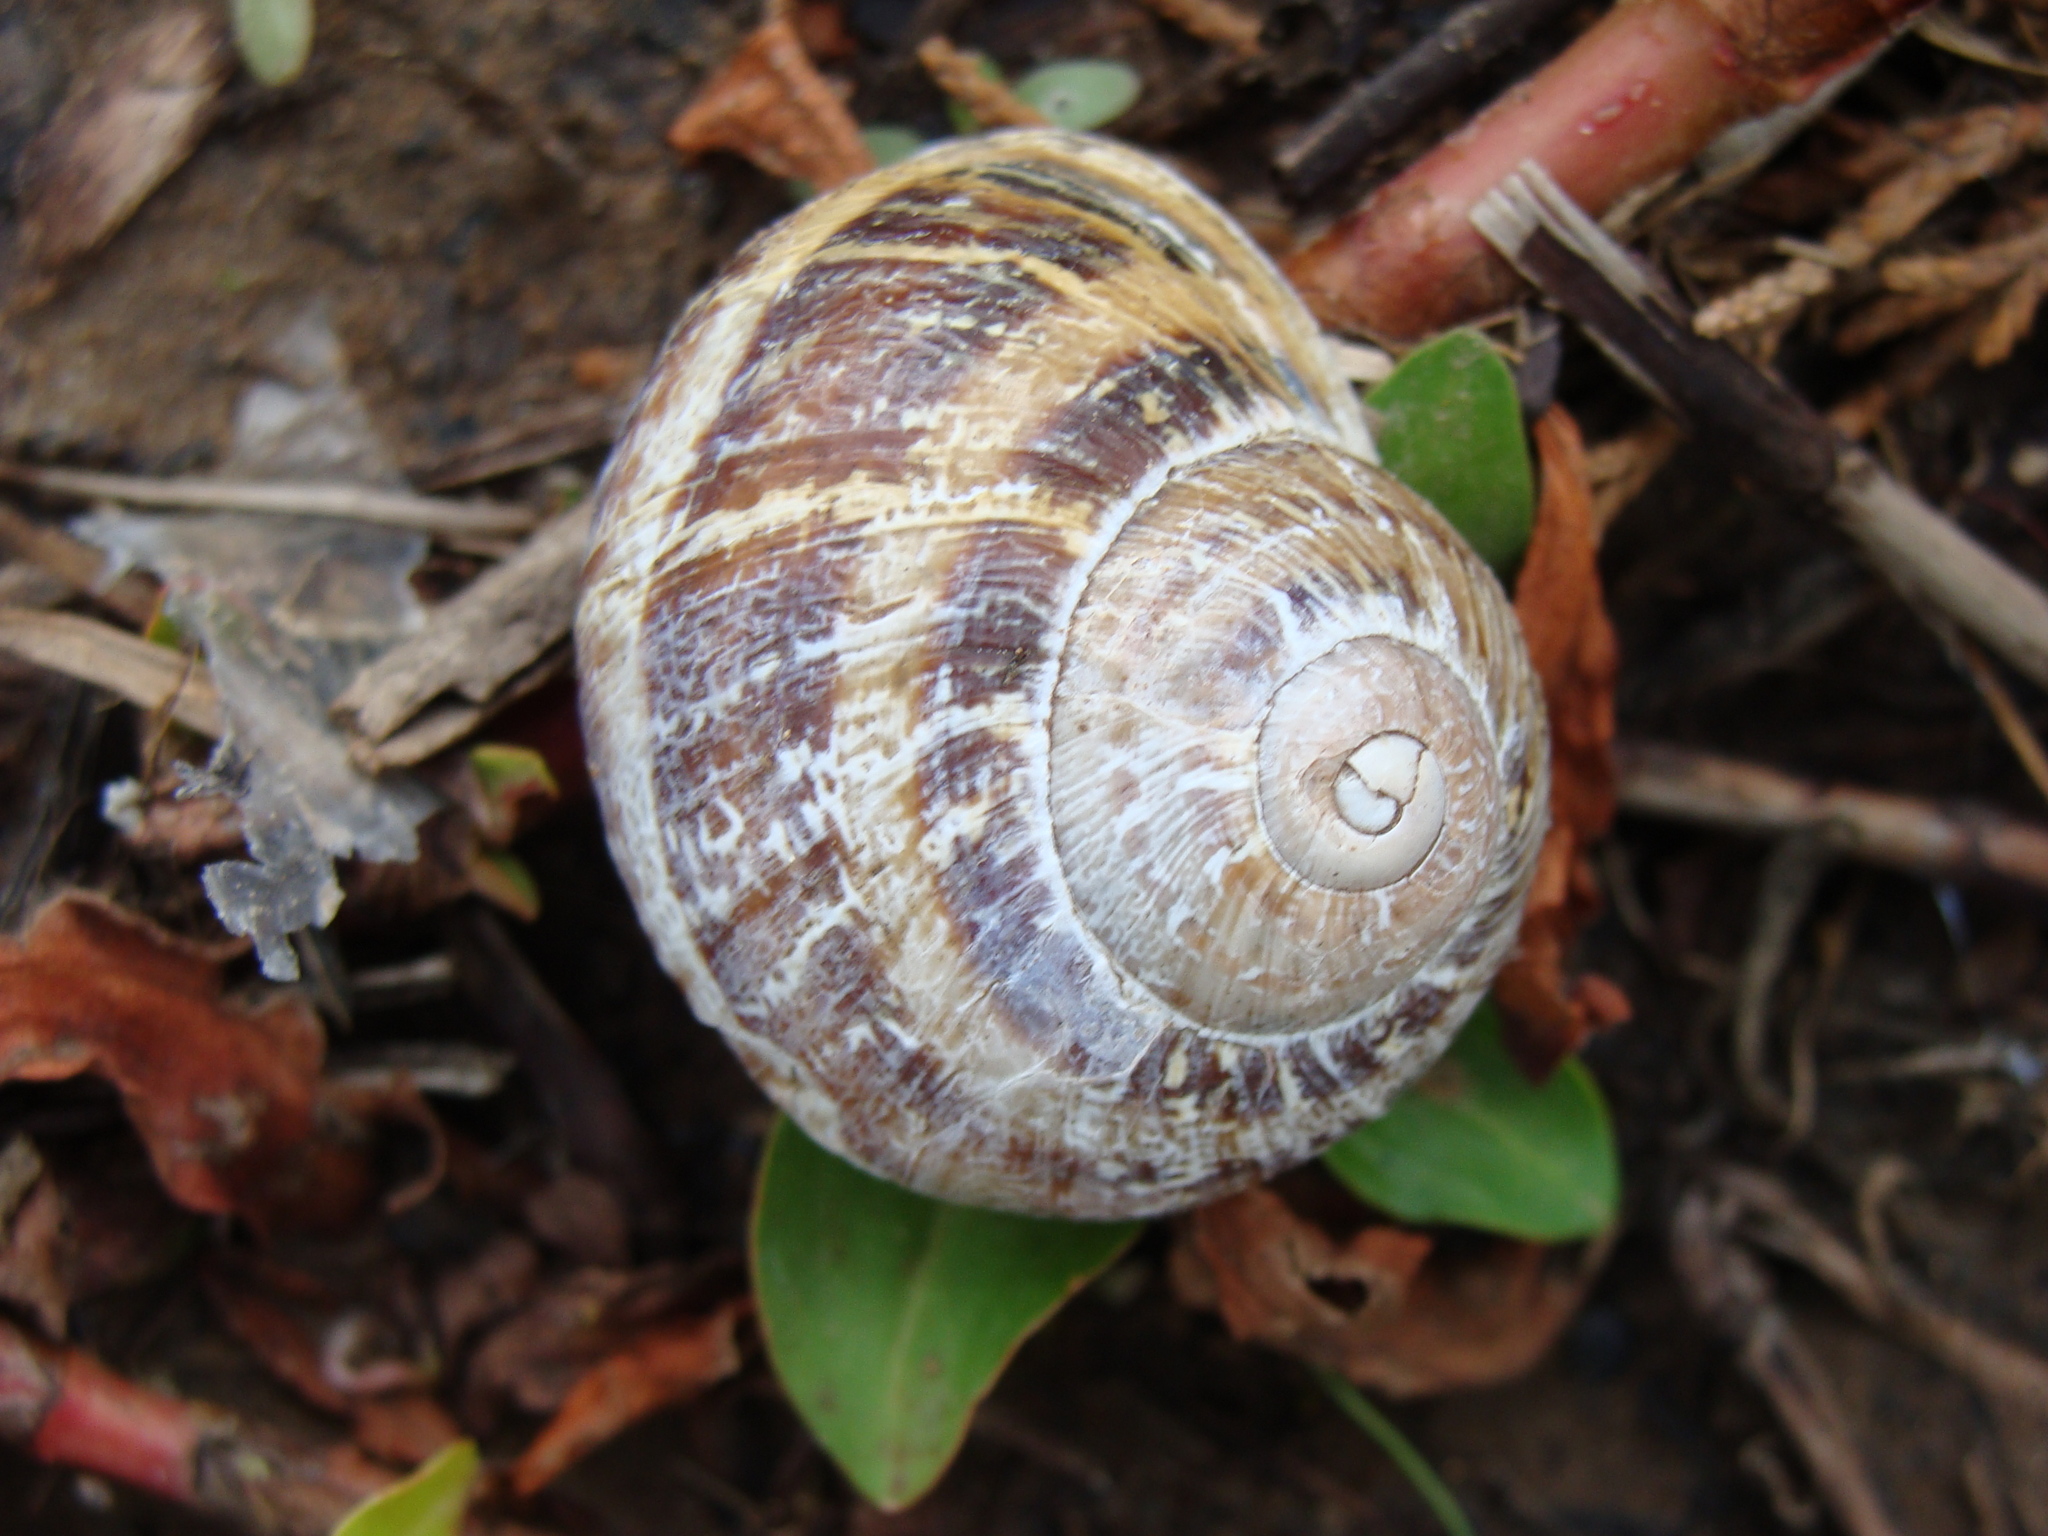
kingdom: Animalia
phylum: Mollusca
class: Gastropoda
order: Stylommatophora
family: Helicidae
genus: Cornu
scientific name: Cornu aspersum
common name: Brown garden snail
